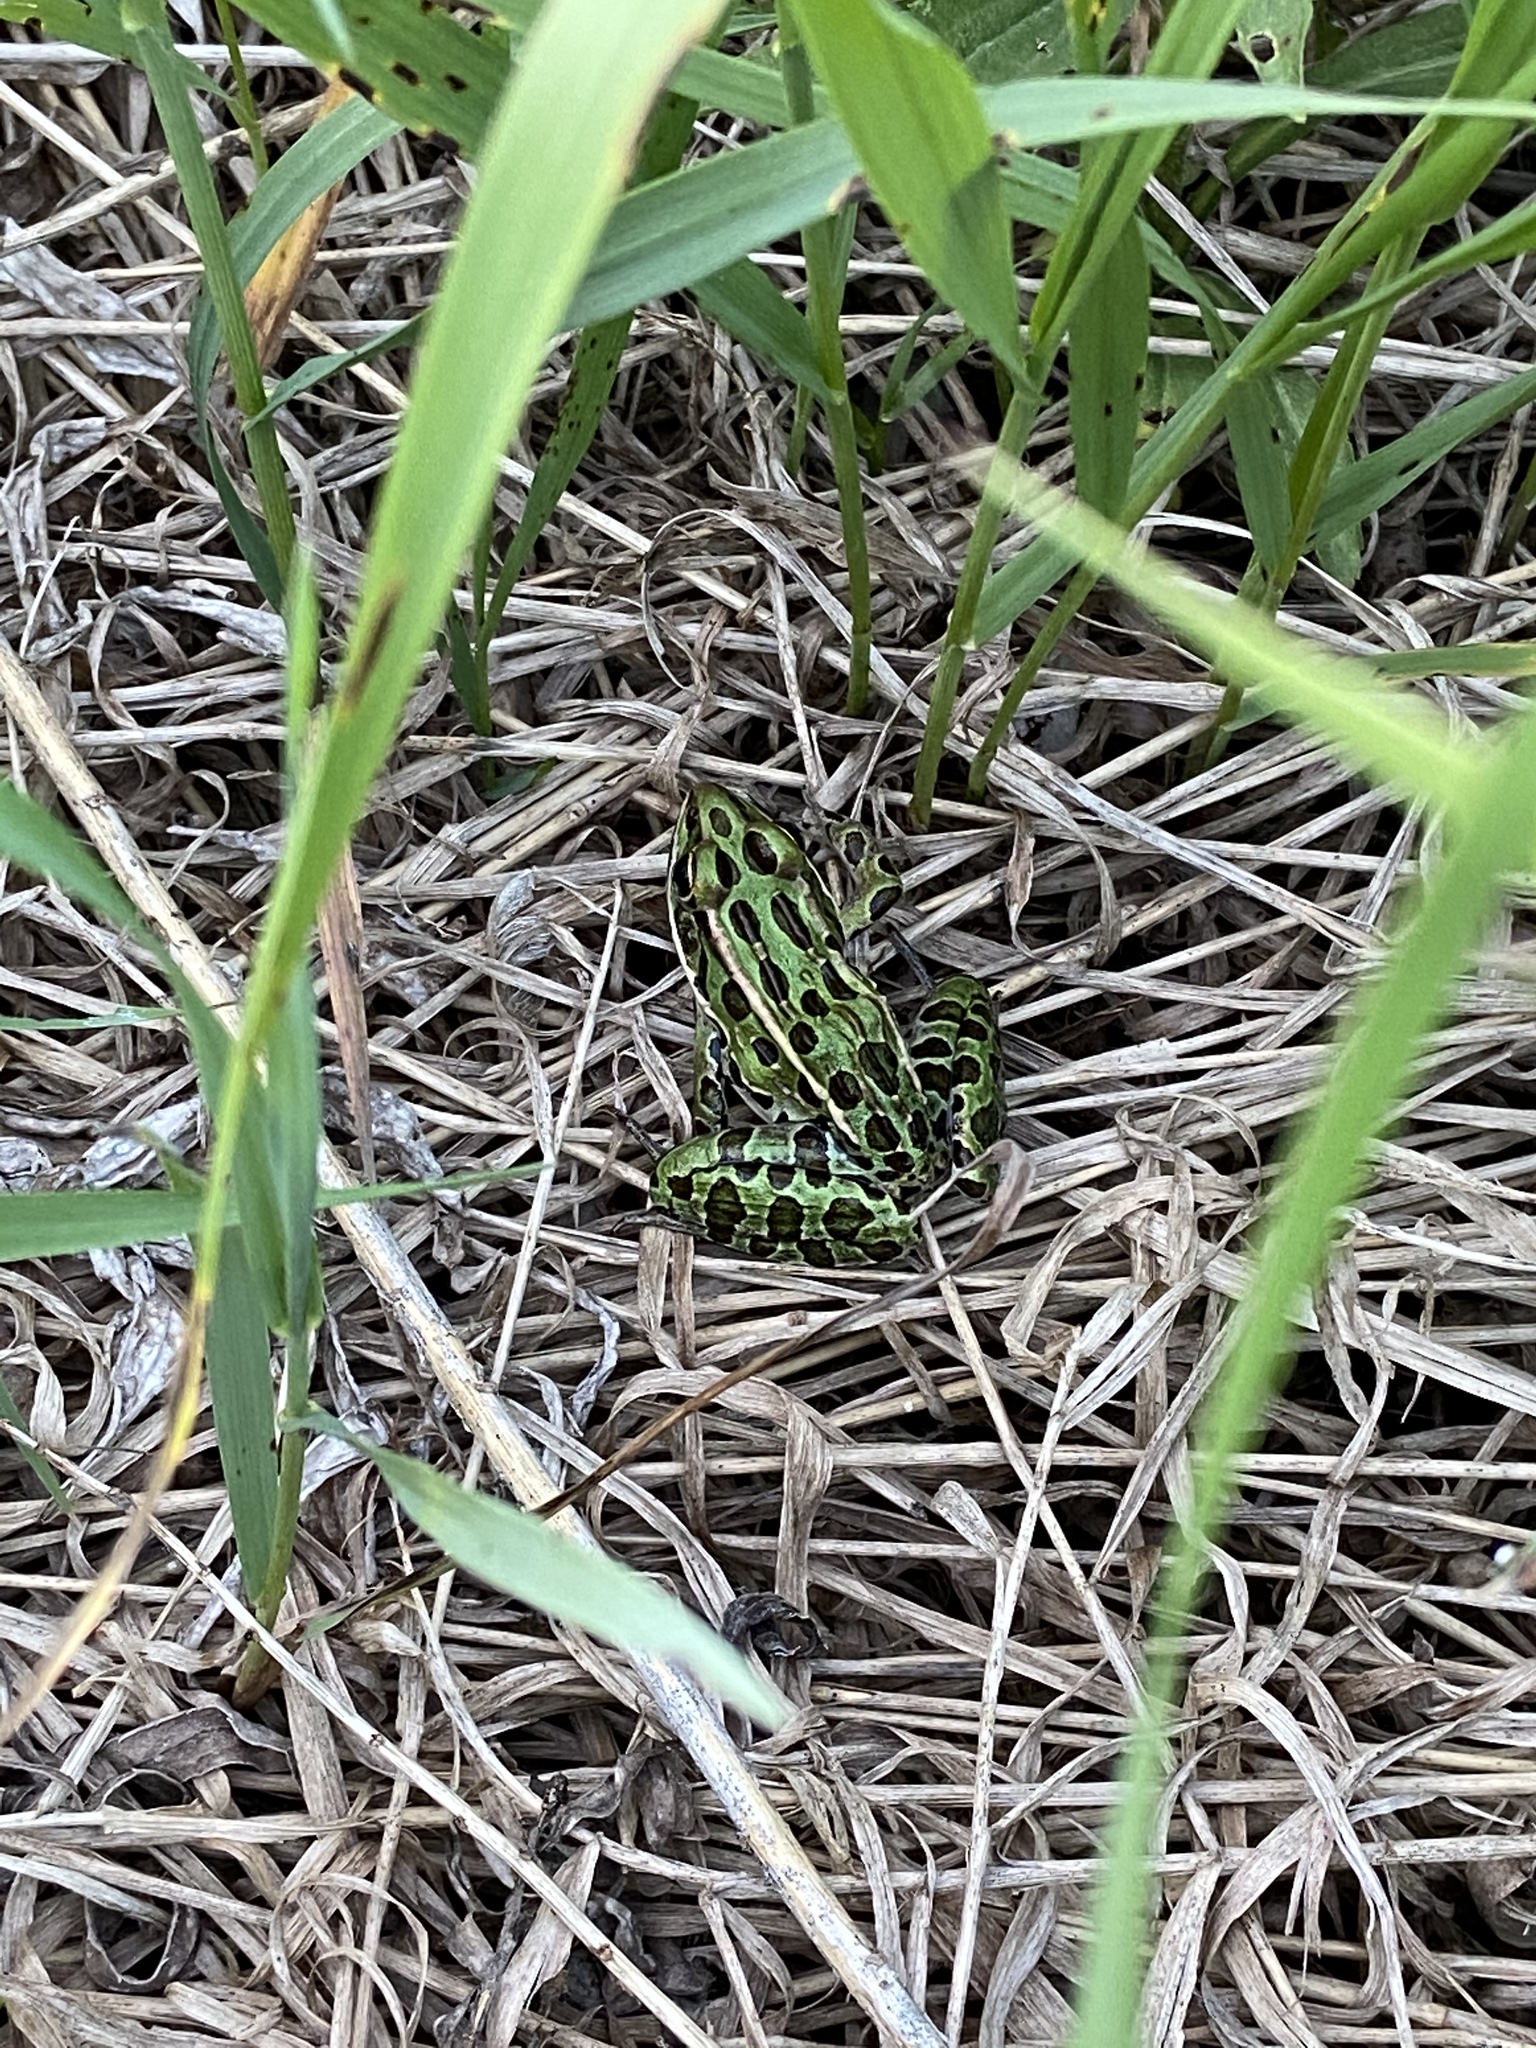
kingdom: Animalia
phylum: Chordata
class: Amphibia
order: Anura
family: Ranidae
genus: Lithobates
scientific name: Lithobates pipiens
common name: Northern leopard frog
